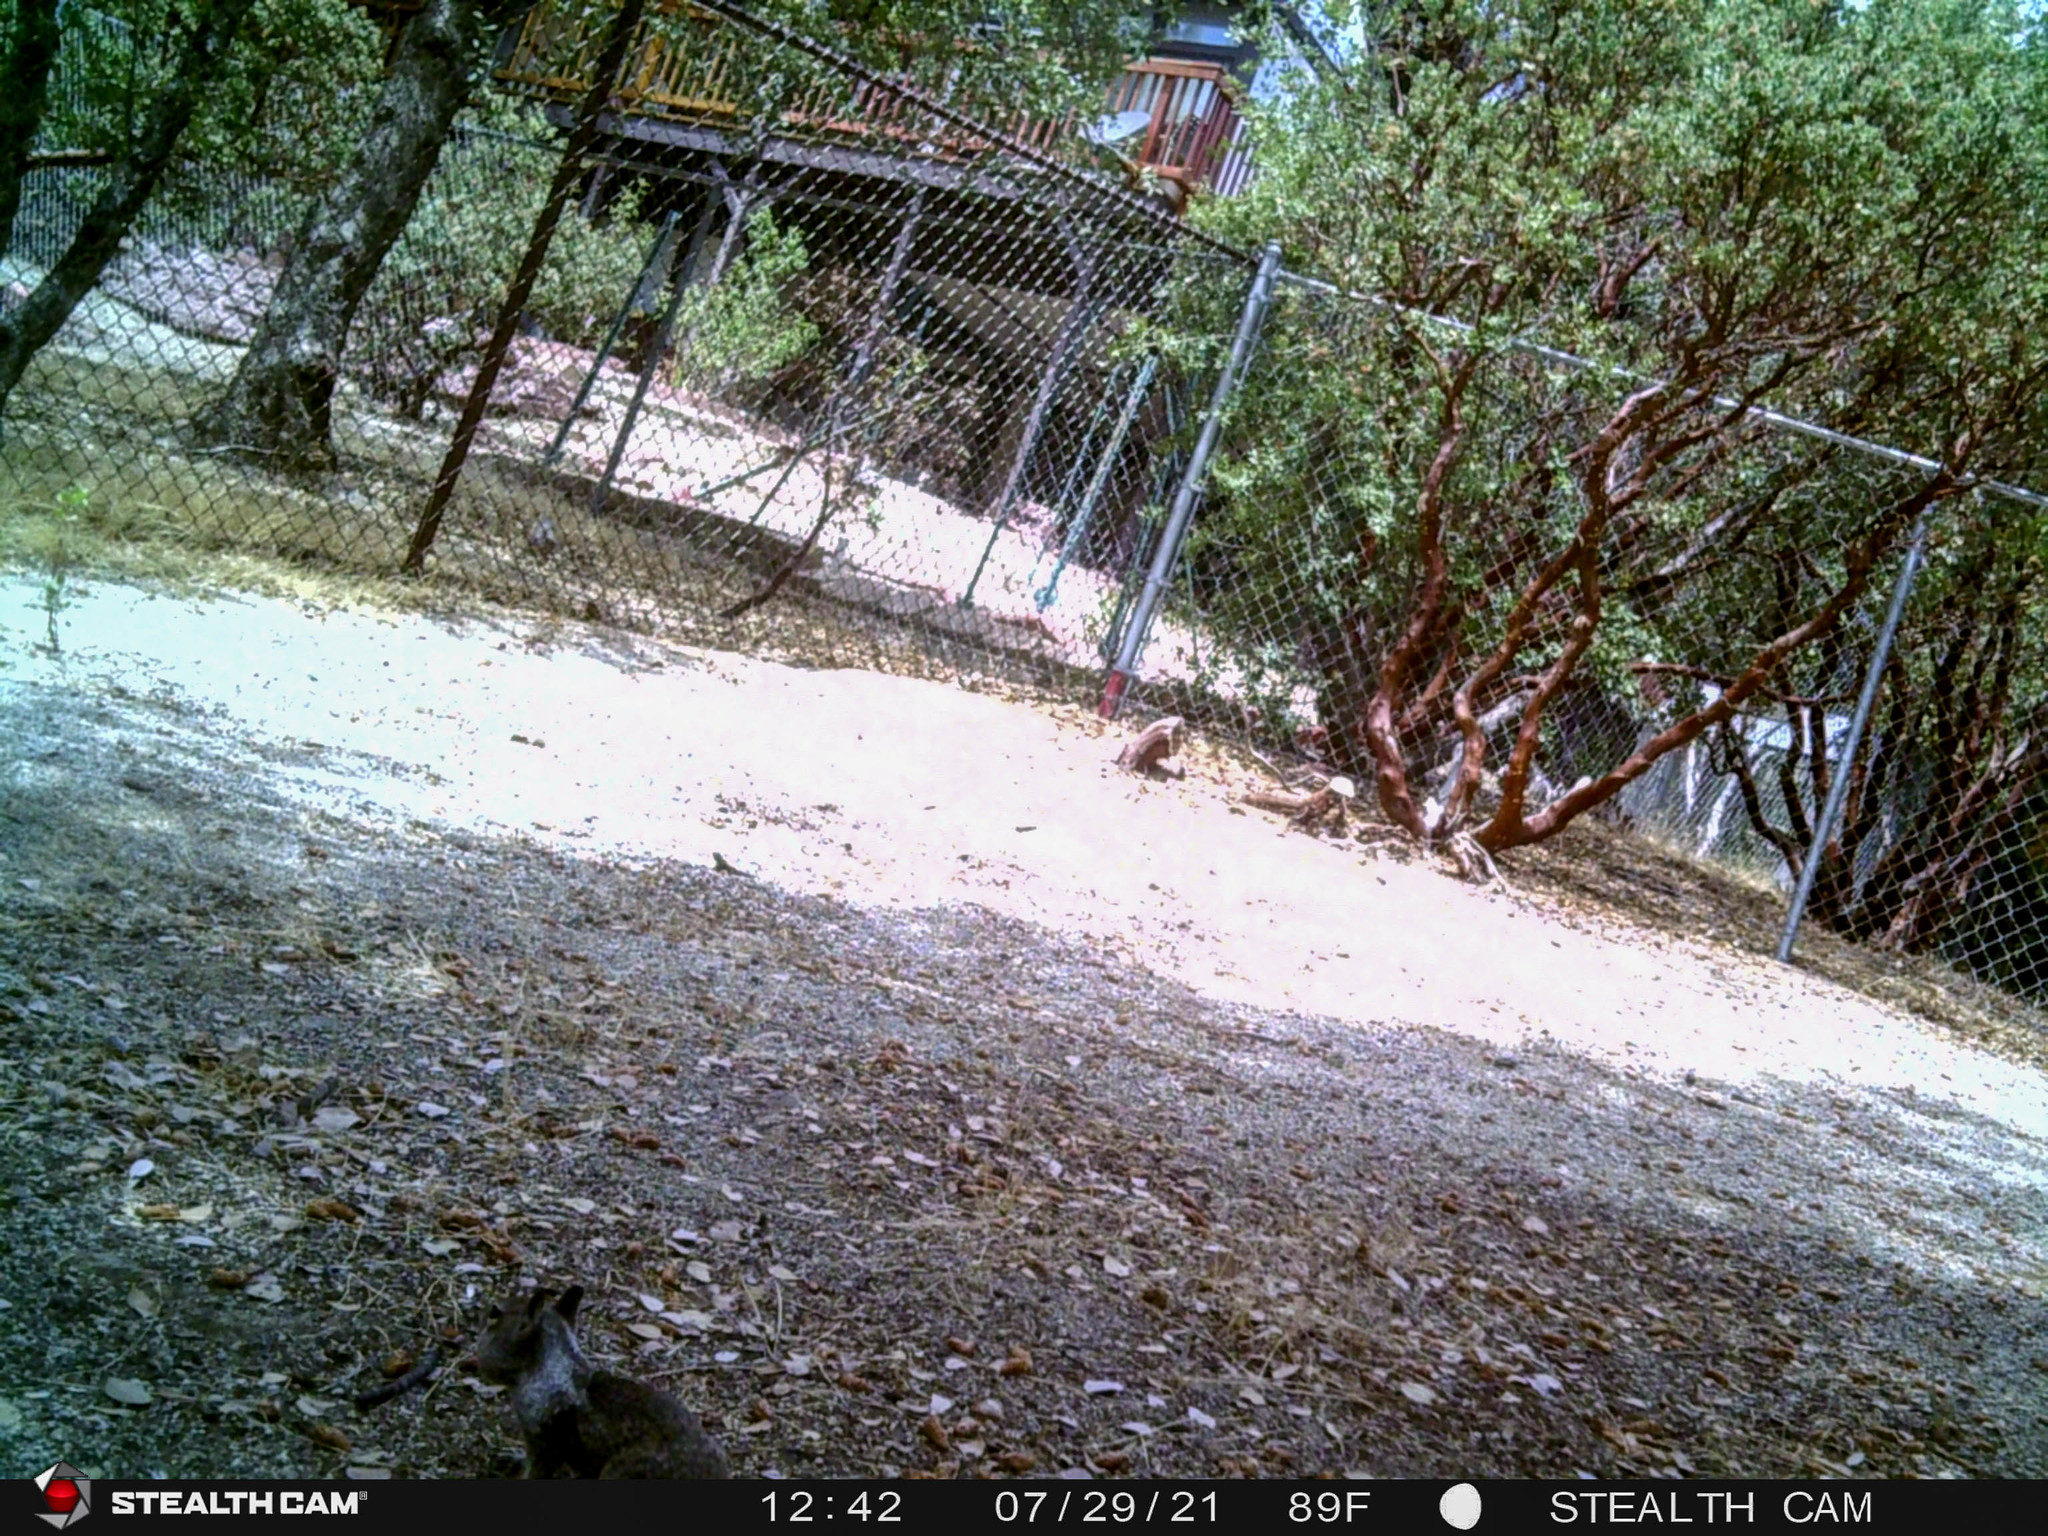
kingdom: Animalia
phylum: Chordata
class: Mammalia
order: Rodentia
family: Sciuridae
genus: Otospermophilus
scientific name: Otospermophilus beecheyi
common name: California ground squirrel
